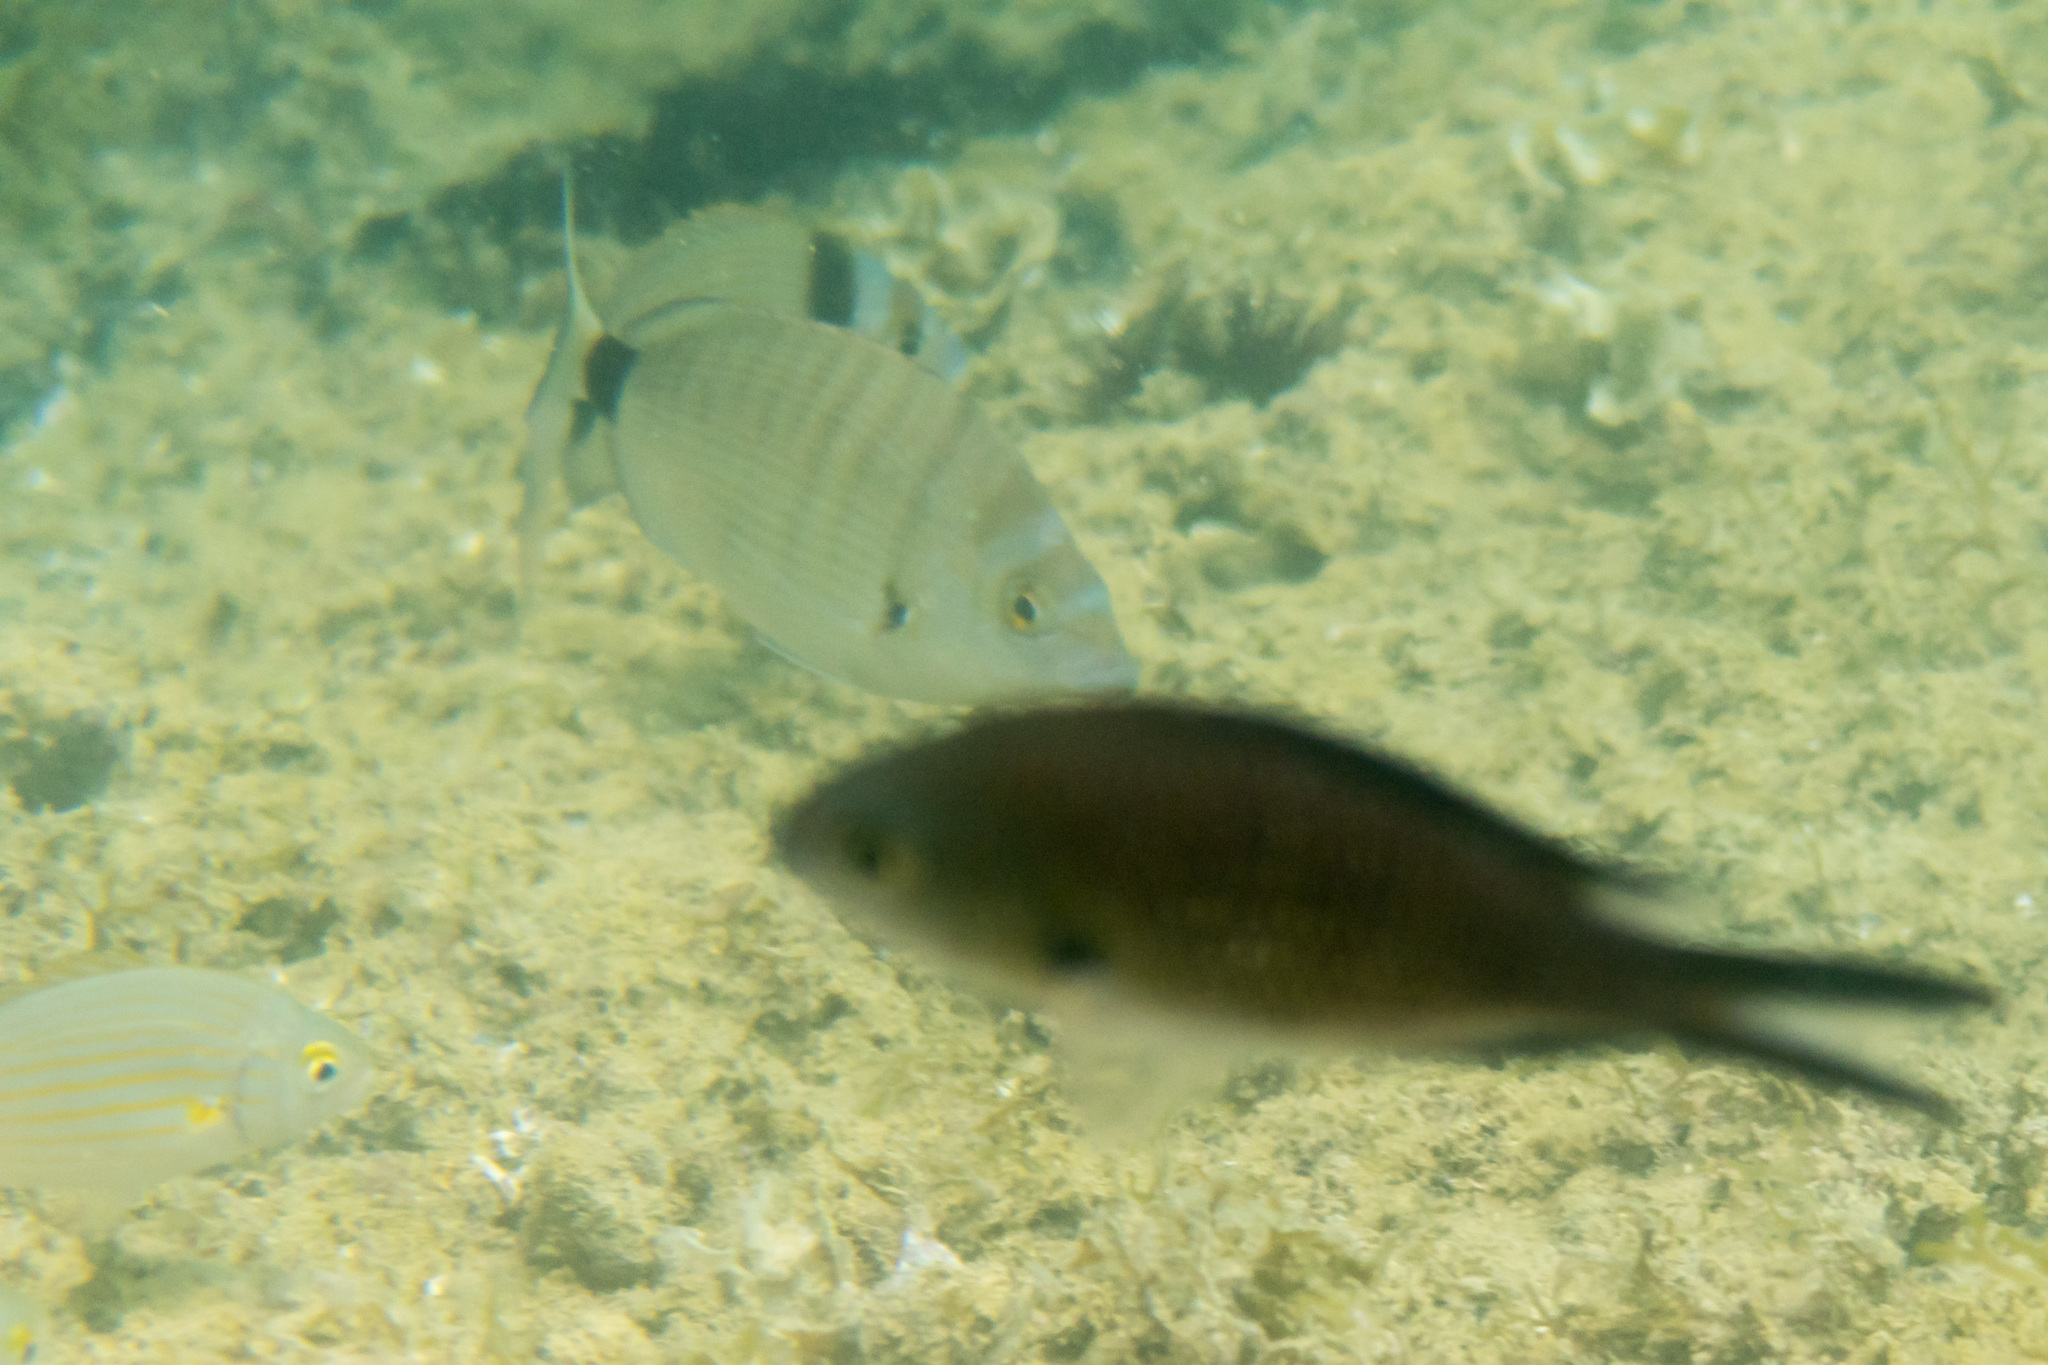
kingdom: Animalia
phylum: Chordata
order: Perciformes
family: Sparidae
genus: Diplodus
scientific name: Diplodus puntazzo
